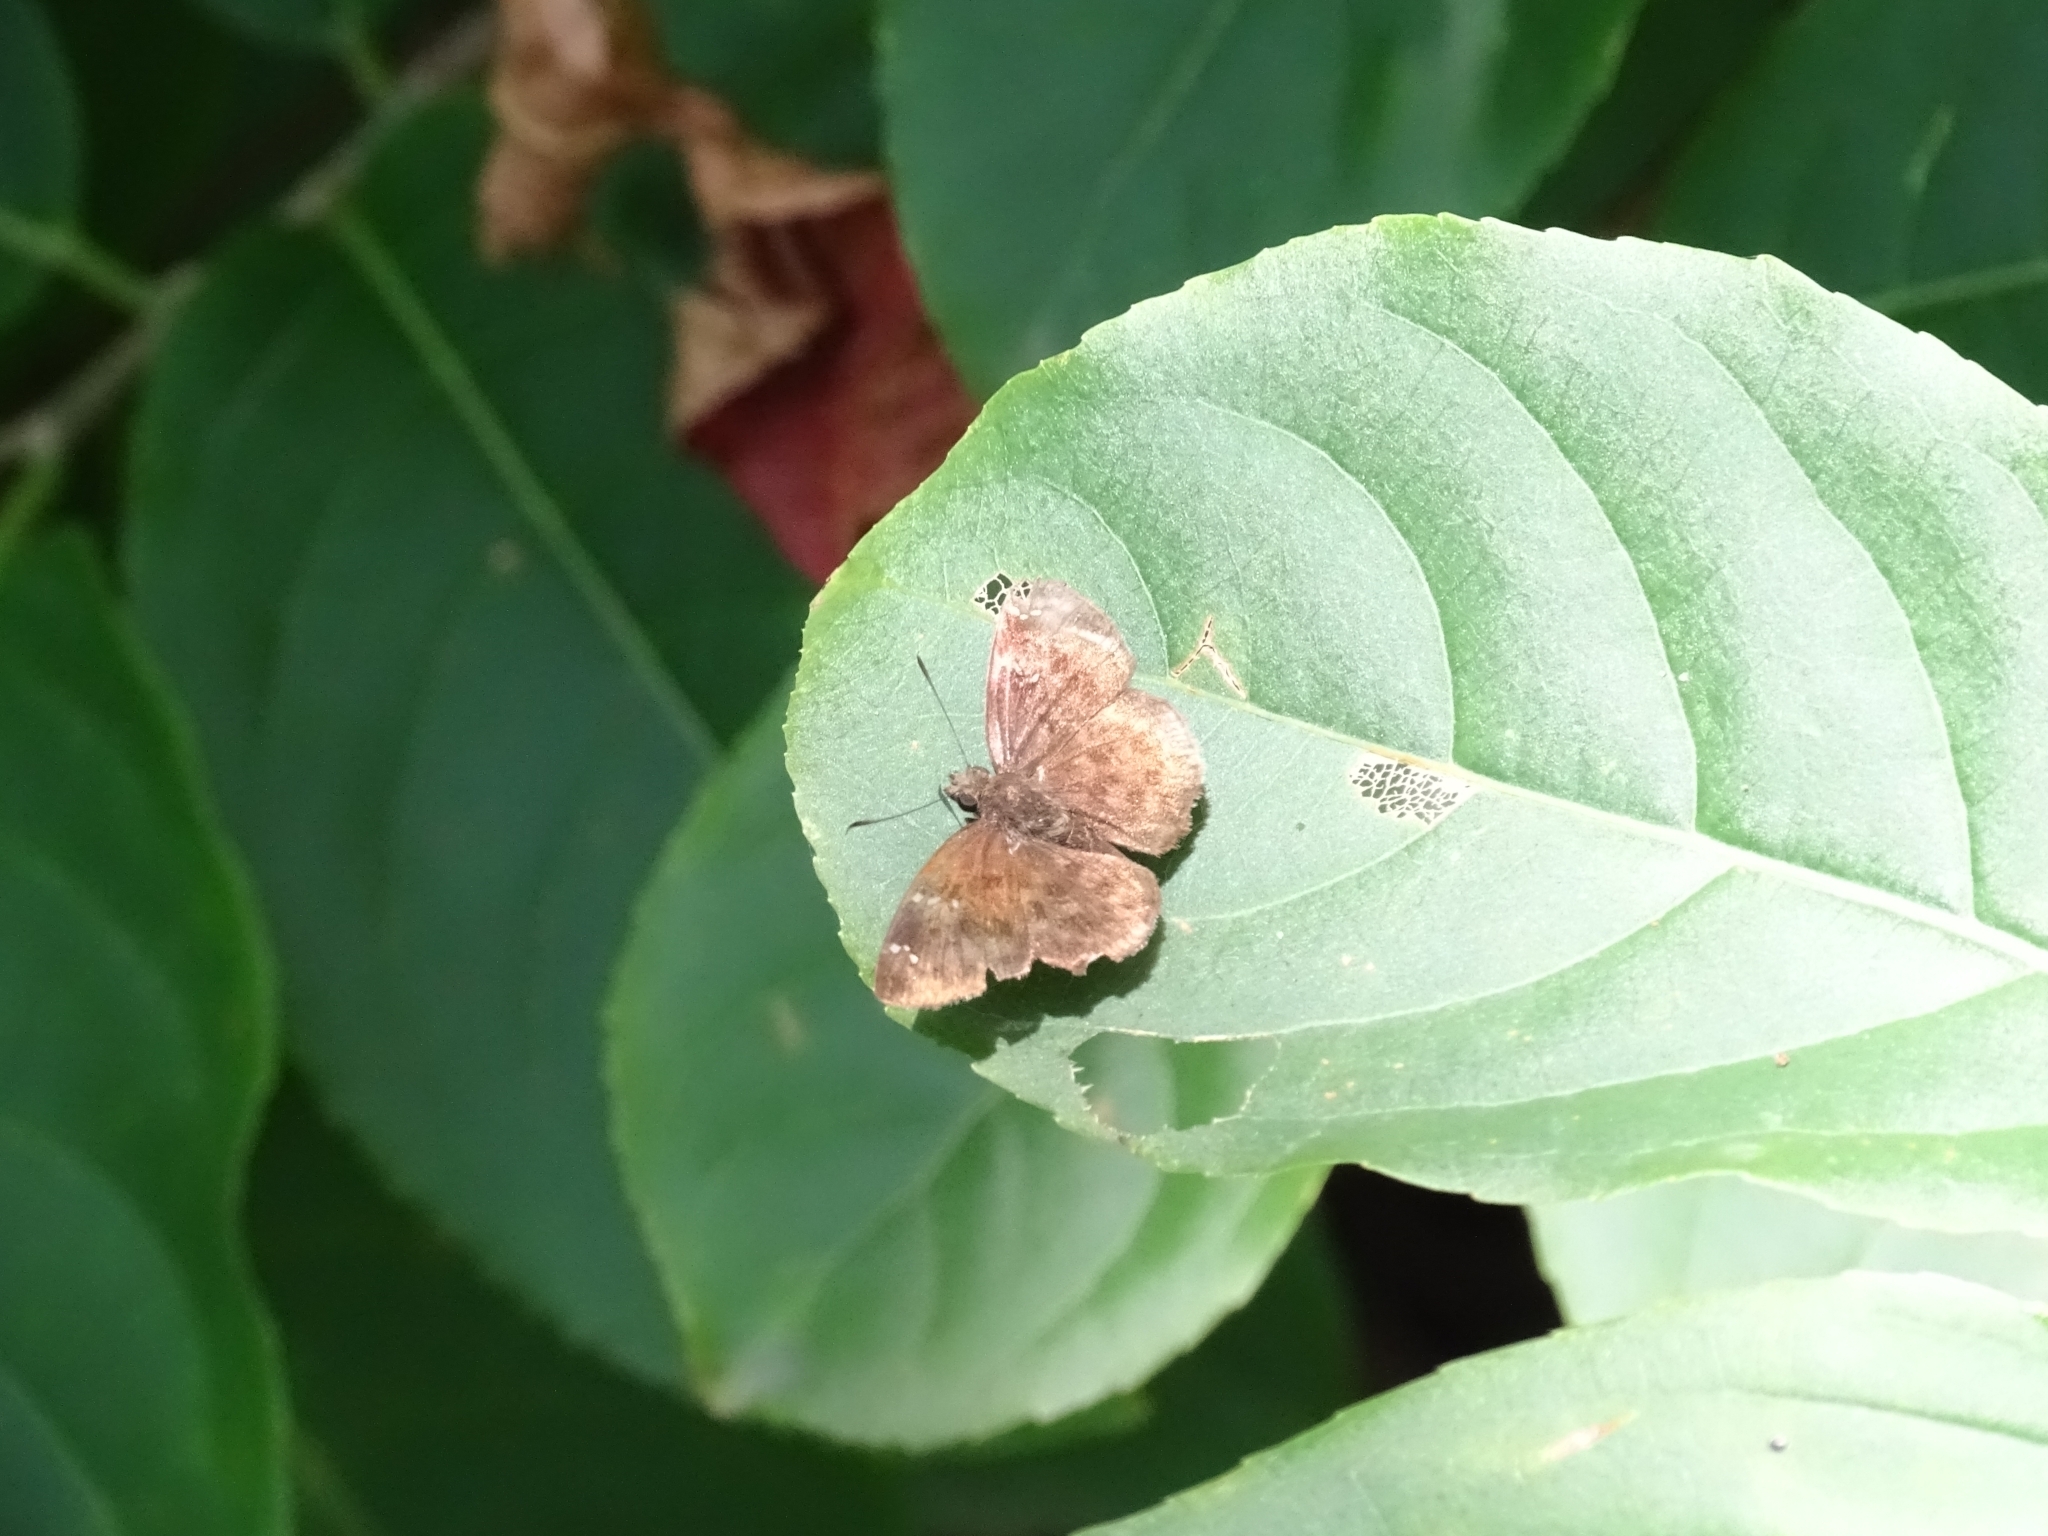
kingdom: Animalia
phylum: Arthropoda
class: Insecta
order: Lepidoptera
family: Hesperiidae
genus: Sarangesa
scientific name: Sarangesa dasahara
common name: Common small flat
